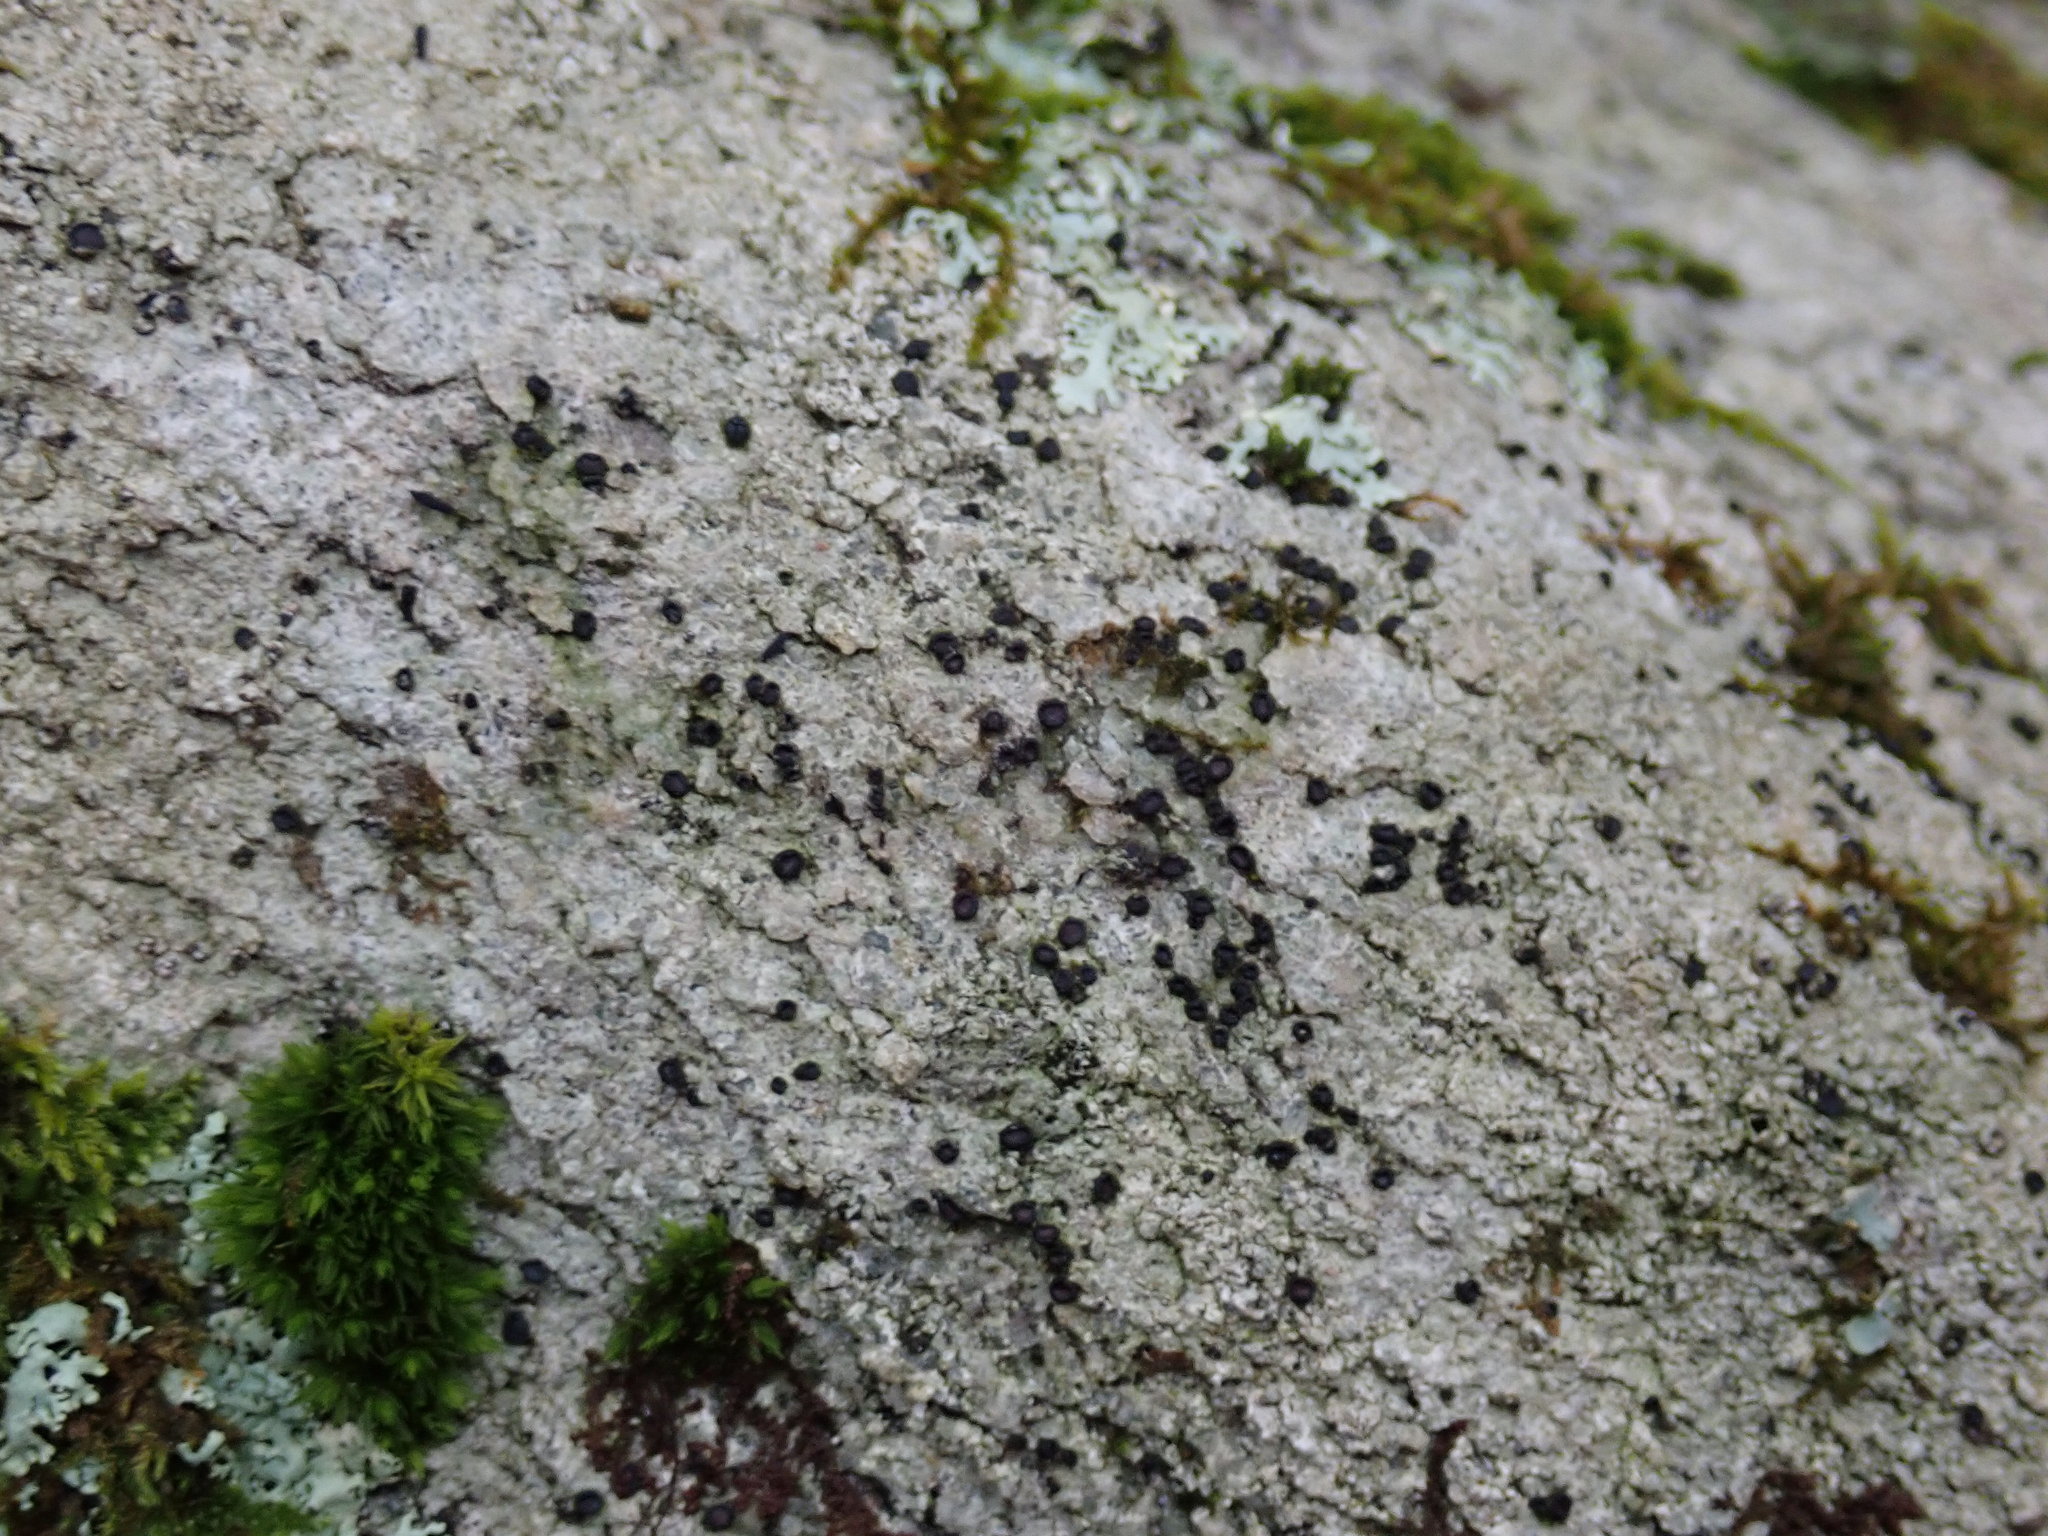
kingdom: Fungi
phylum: Ascomycota
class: Lecanoromycetes
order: Caliciales
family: Caliciaceae
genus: Buellia
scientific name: Buellia erubescens
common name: Common button lichen
